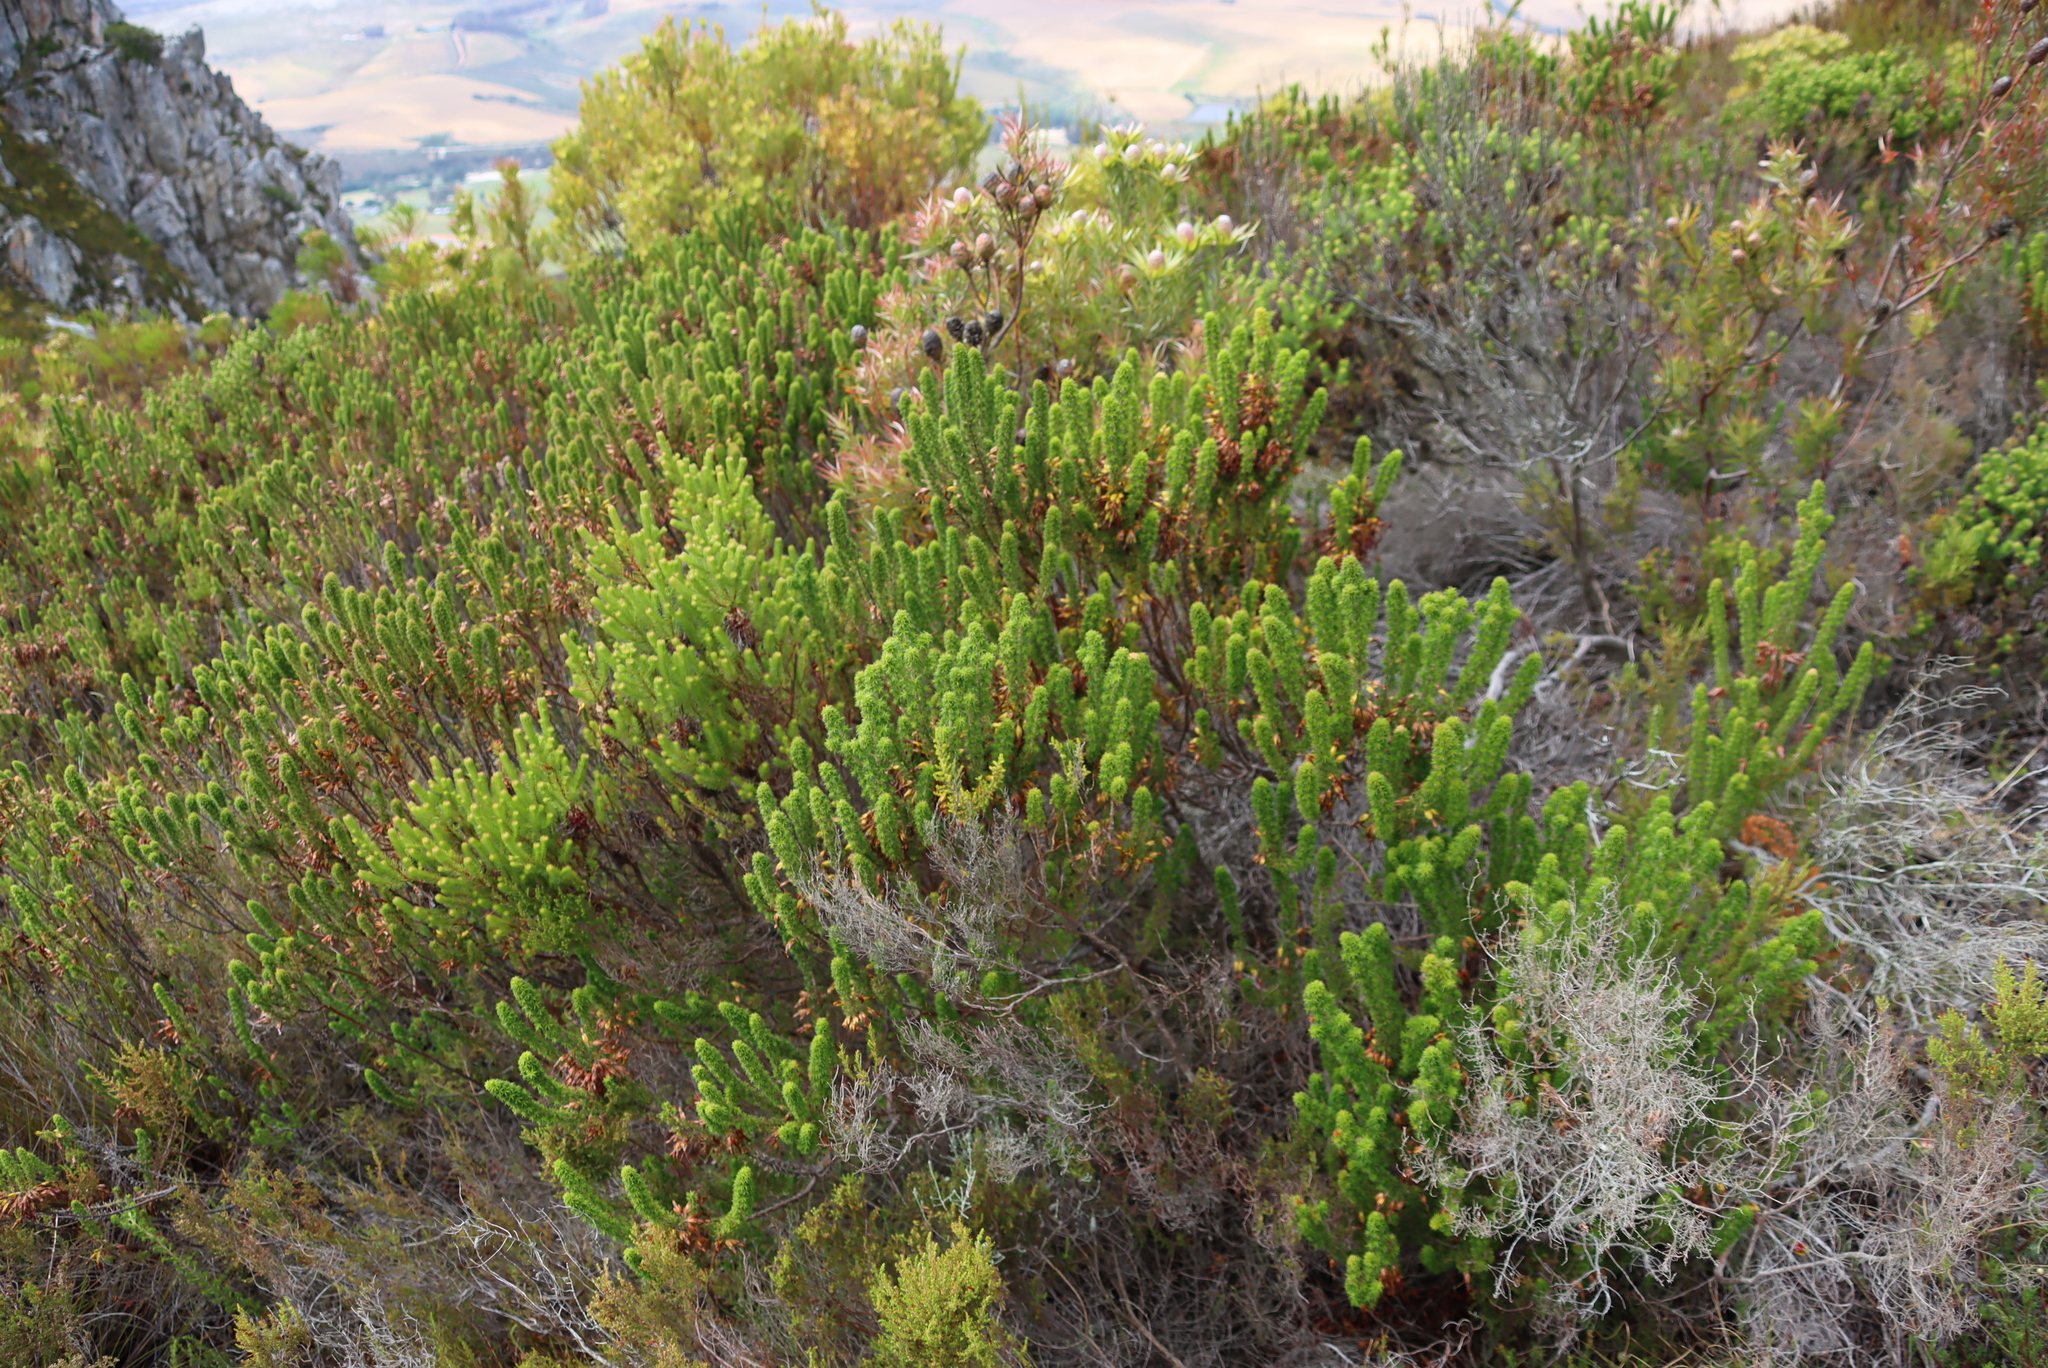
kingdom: Plantae
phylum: Tracheophyta
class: Magnoliopsida
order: Ericales
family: Ericaceae
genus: Erica
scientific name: Erica sessiliflora
